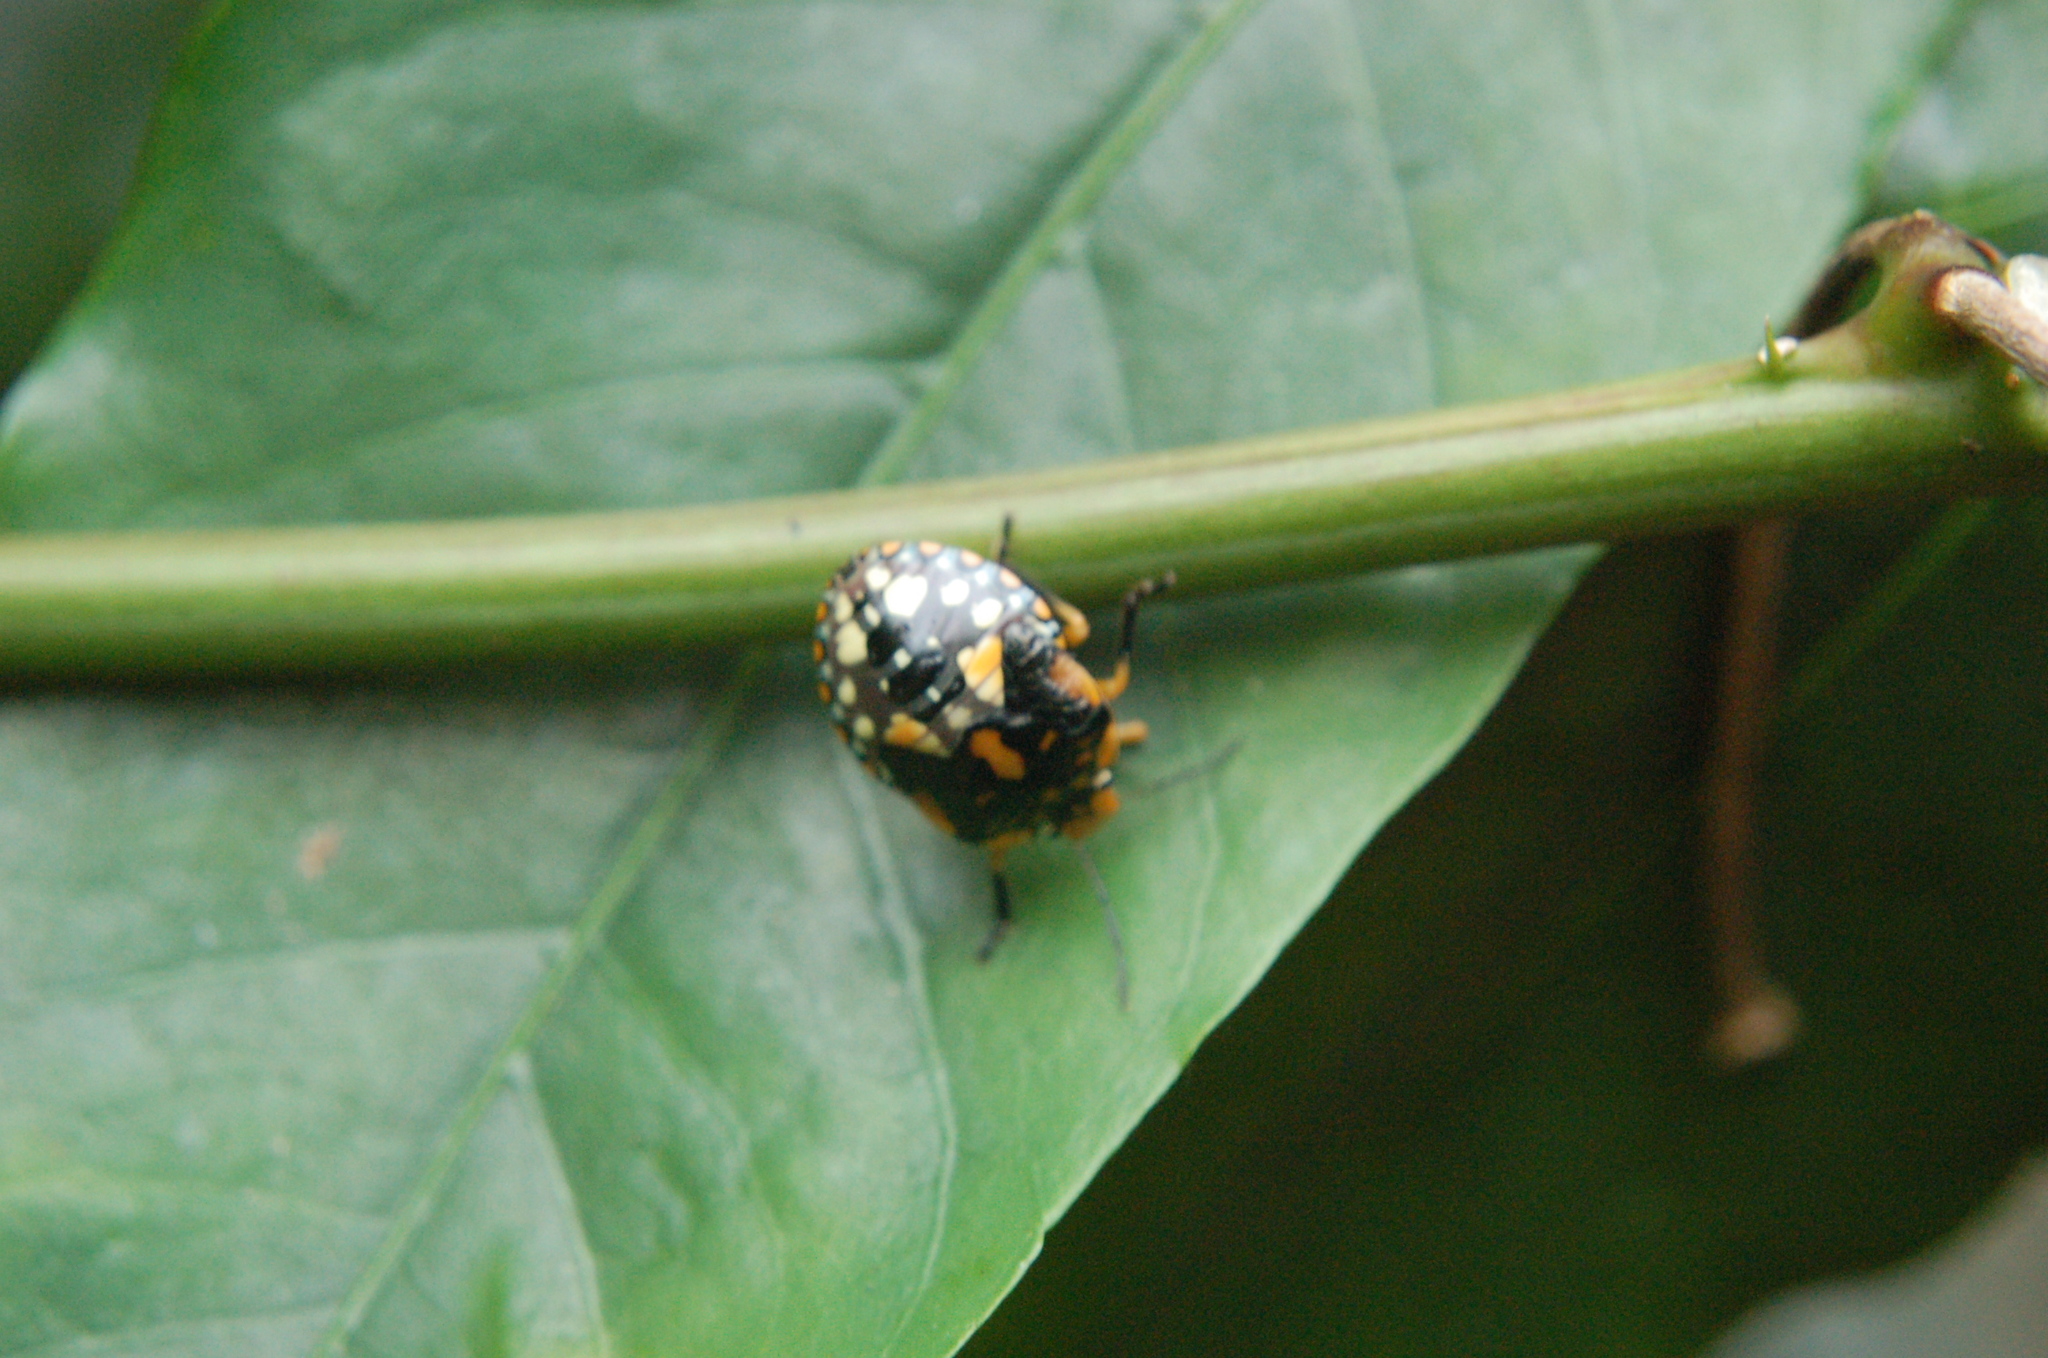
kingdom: Animalia
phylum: Arthropoda
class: Insecta
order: Hemiptera
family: Pentatomidae
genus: Acrosternum
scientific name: Acrosternum marginatum
